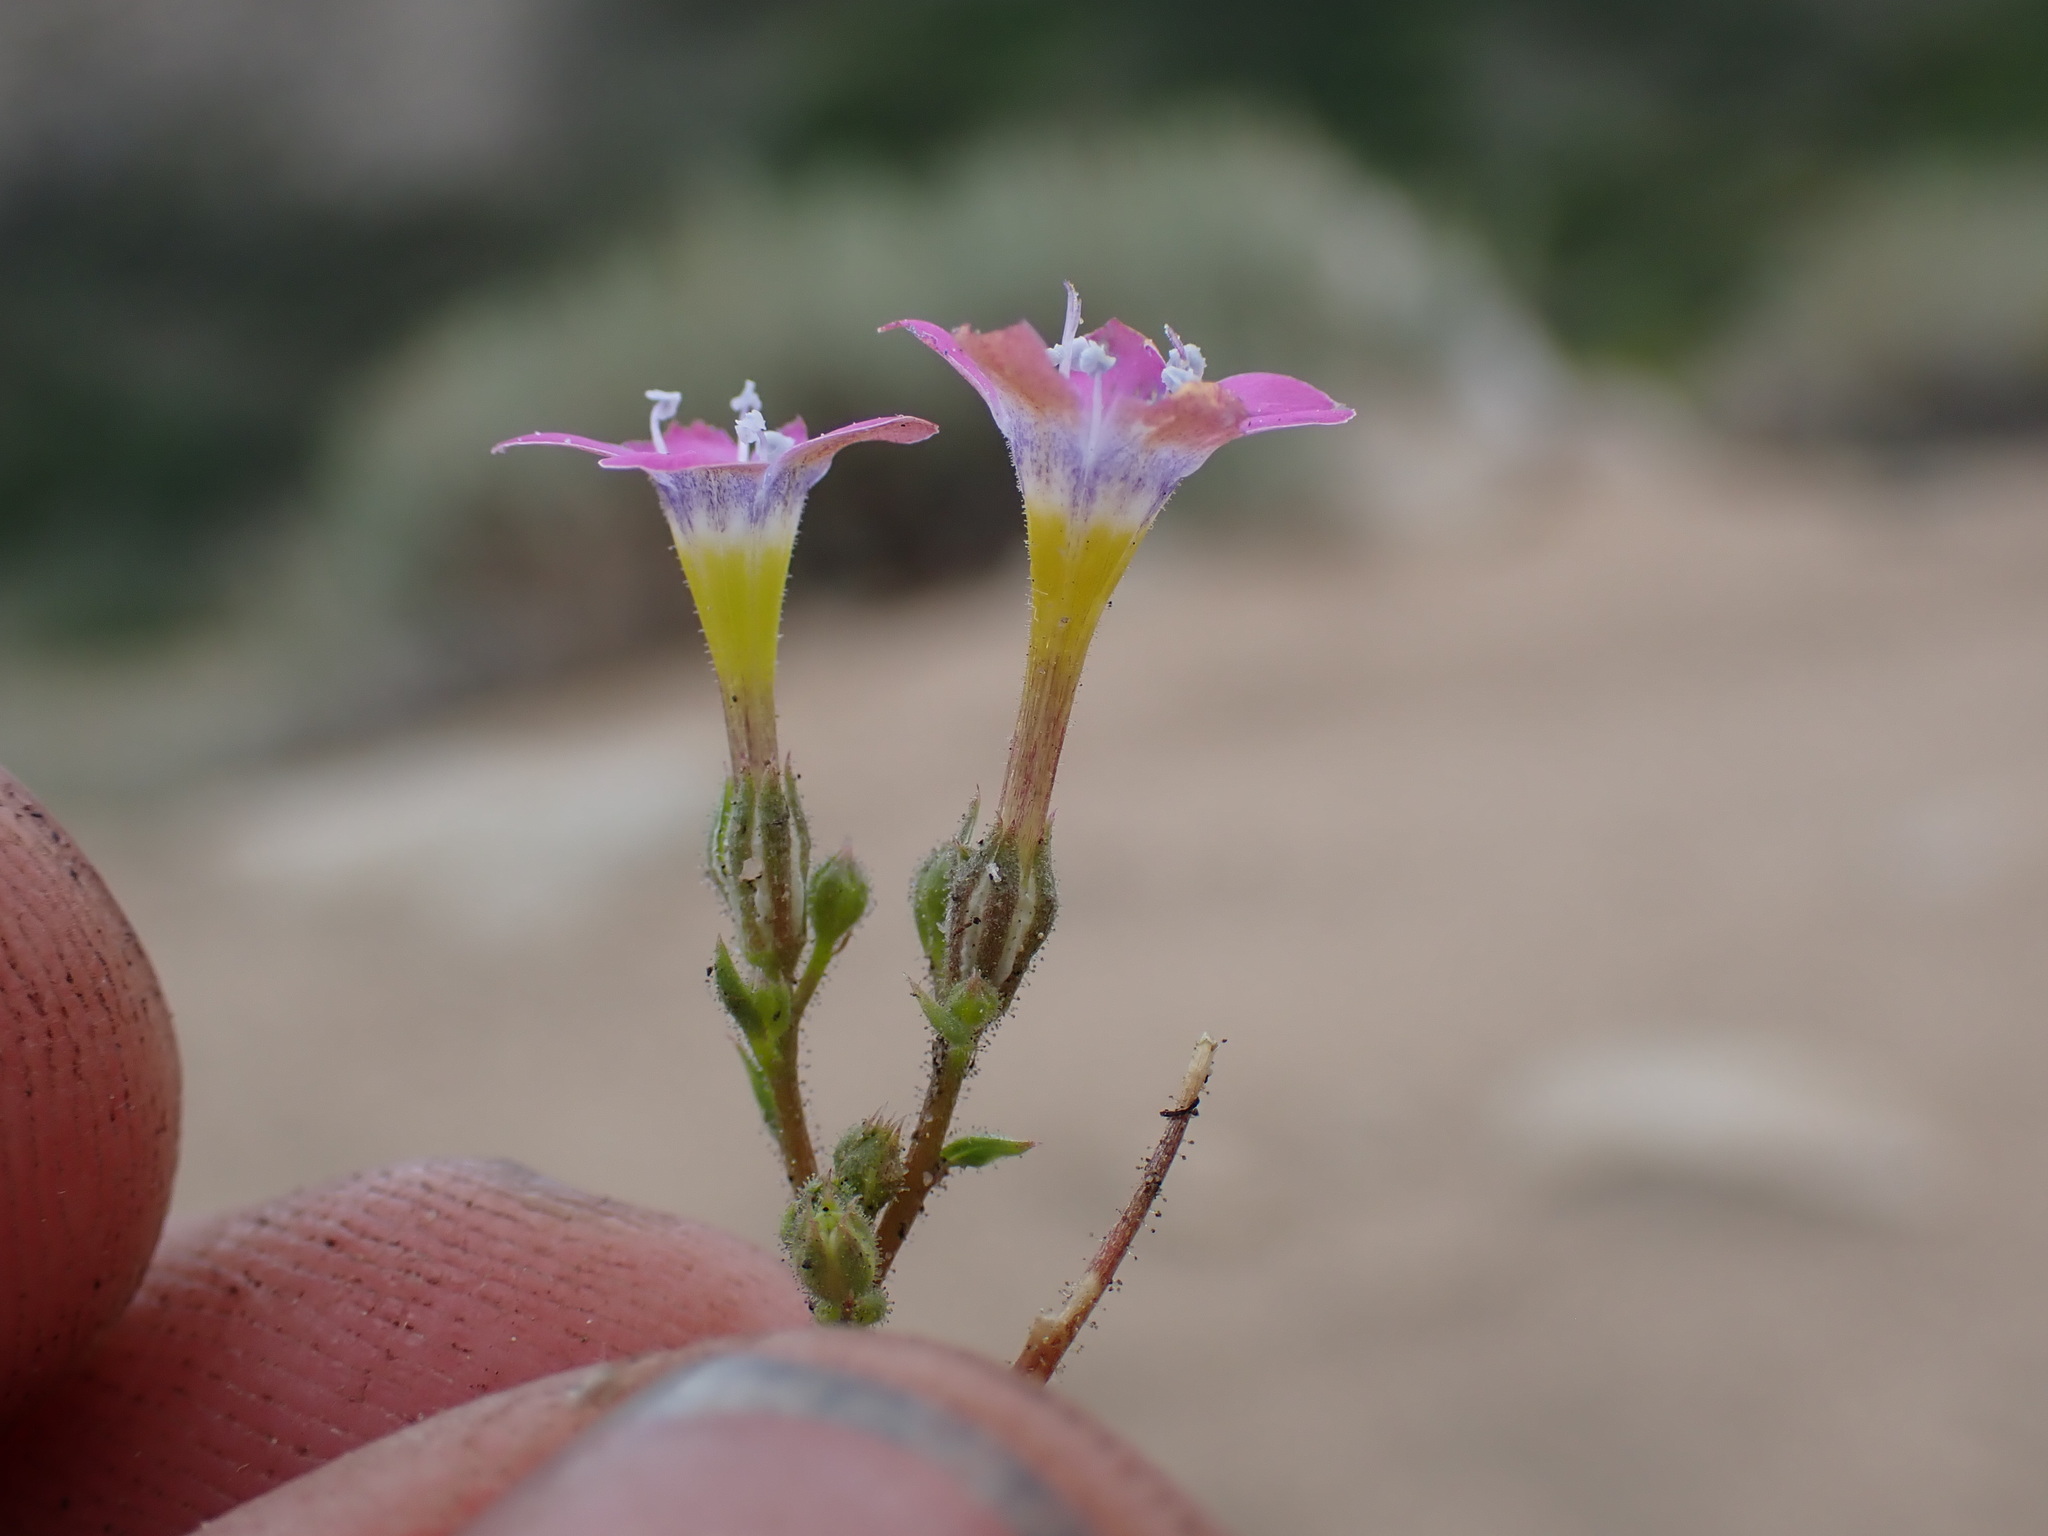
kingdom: Plantae
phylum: Tracheophyta
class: Magnoliopsida
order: Ericales
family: Polemoniaceae
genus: Gilia
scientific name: Gilia cana
